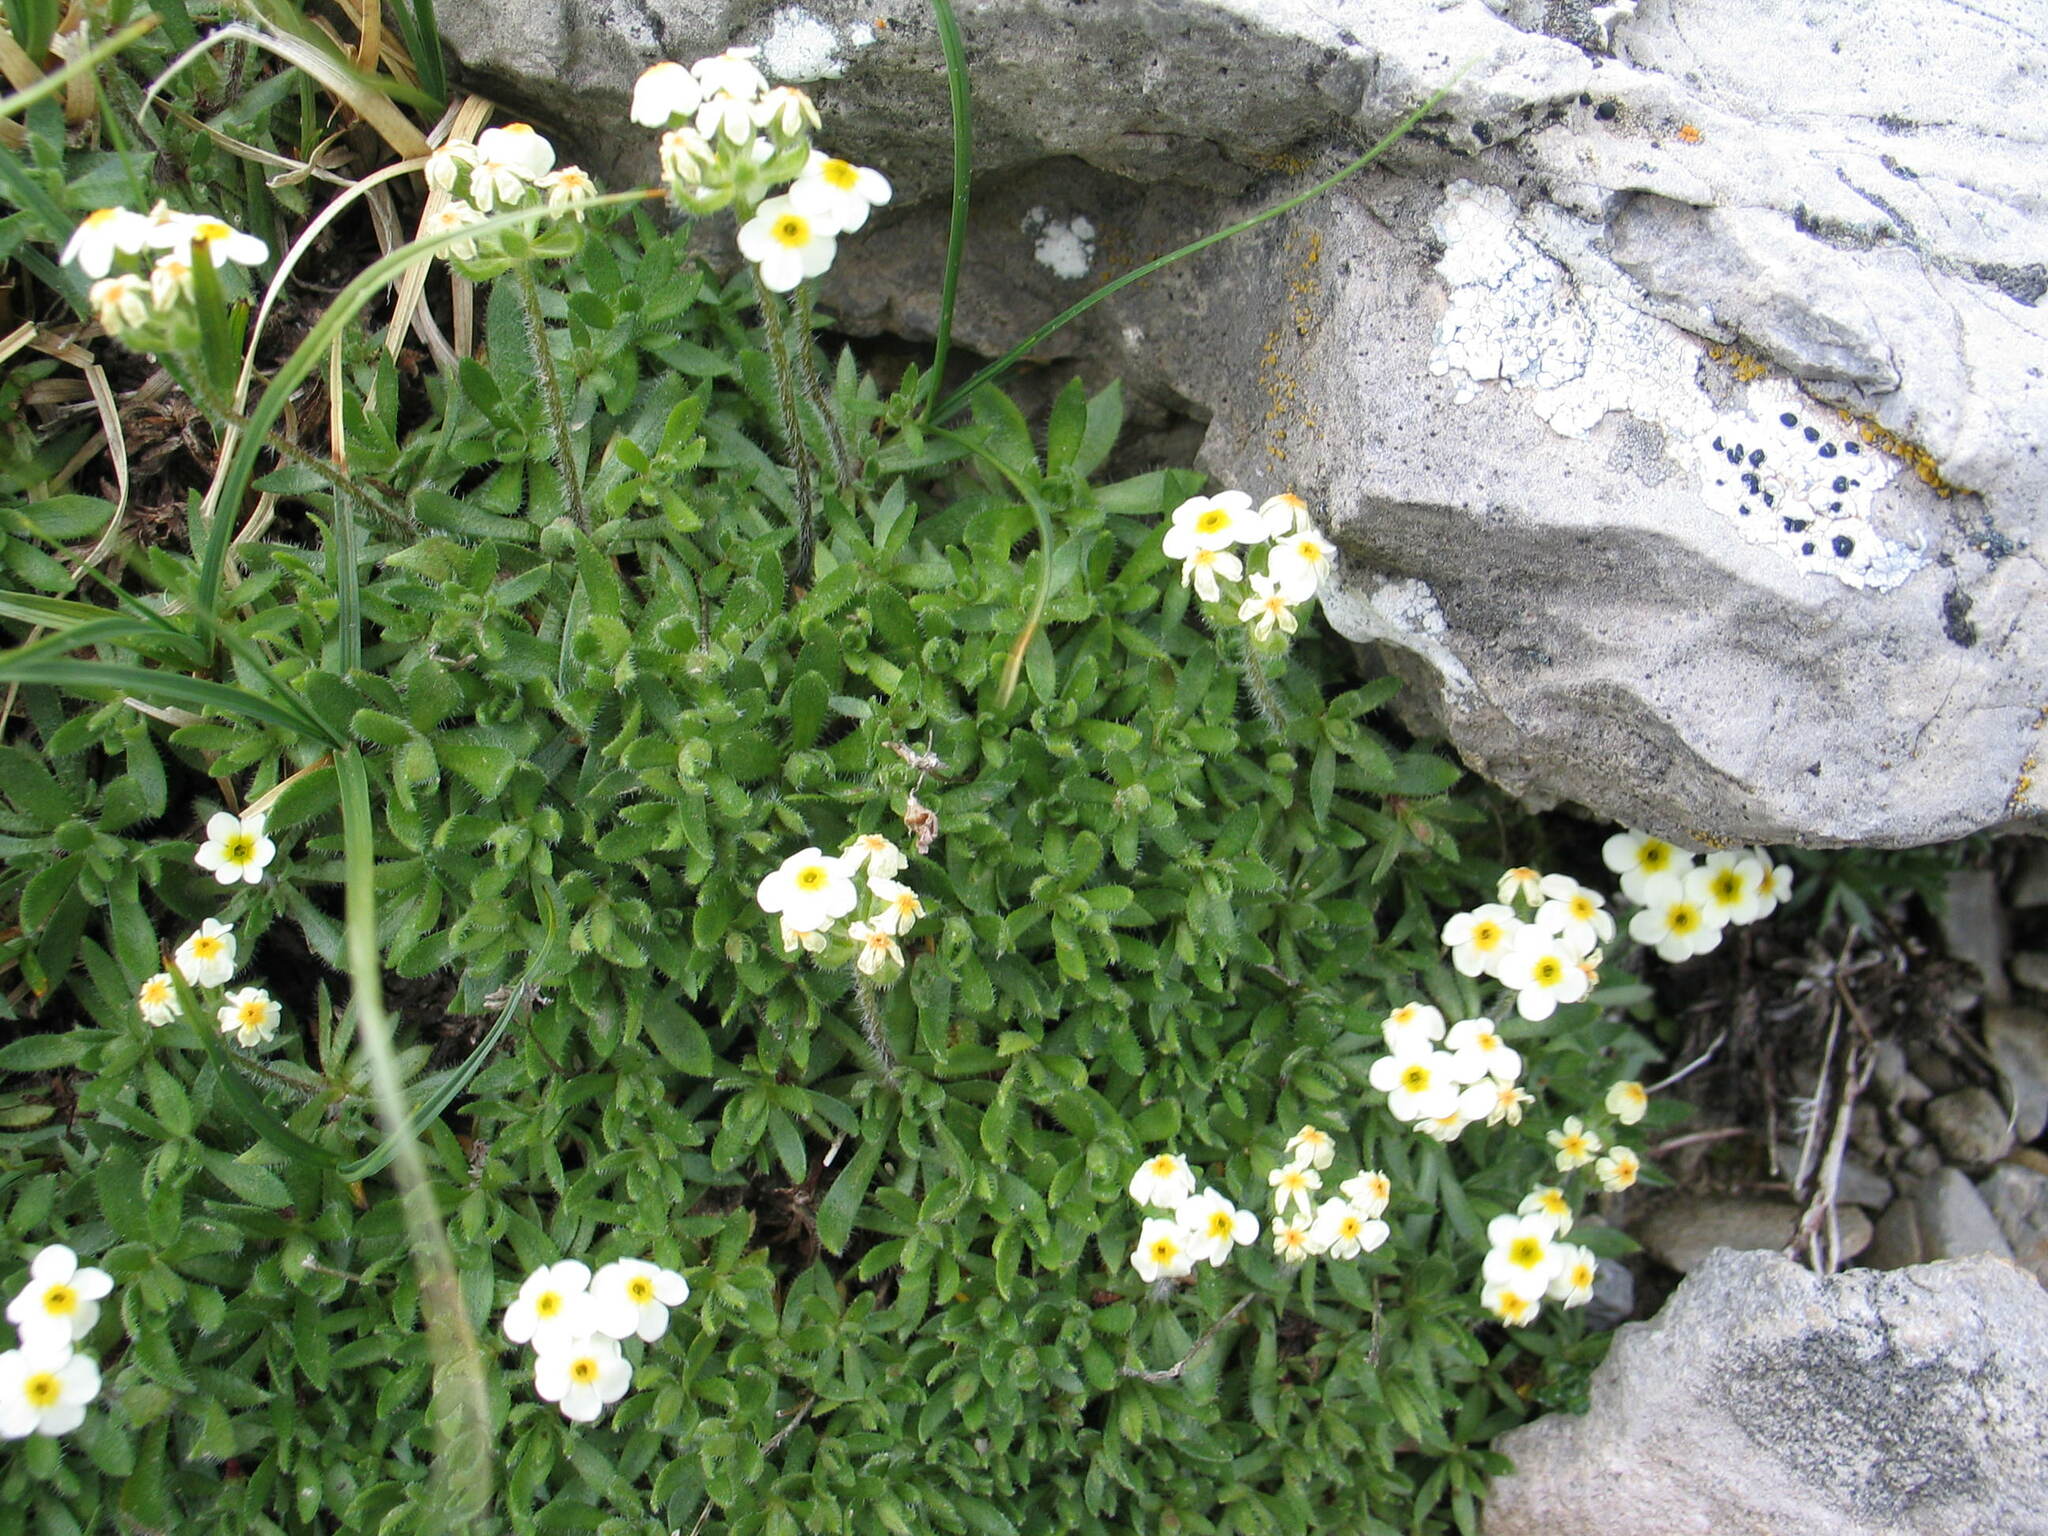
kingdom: Plantae
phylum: Tracheophyta
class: Magnoliopsida
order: Ericales
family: Primulaceae
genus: Androsace
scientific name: Androsace chamaejasme
